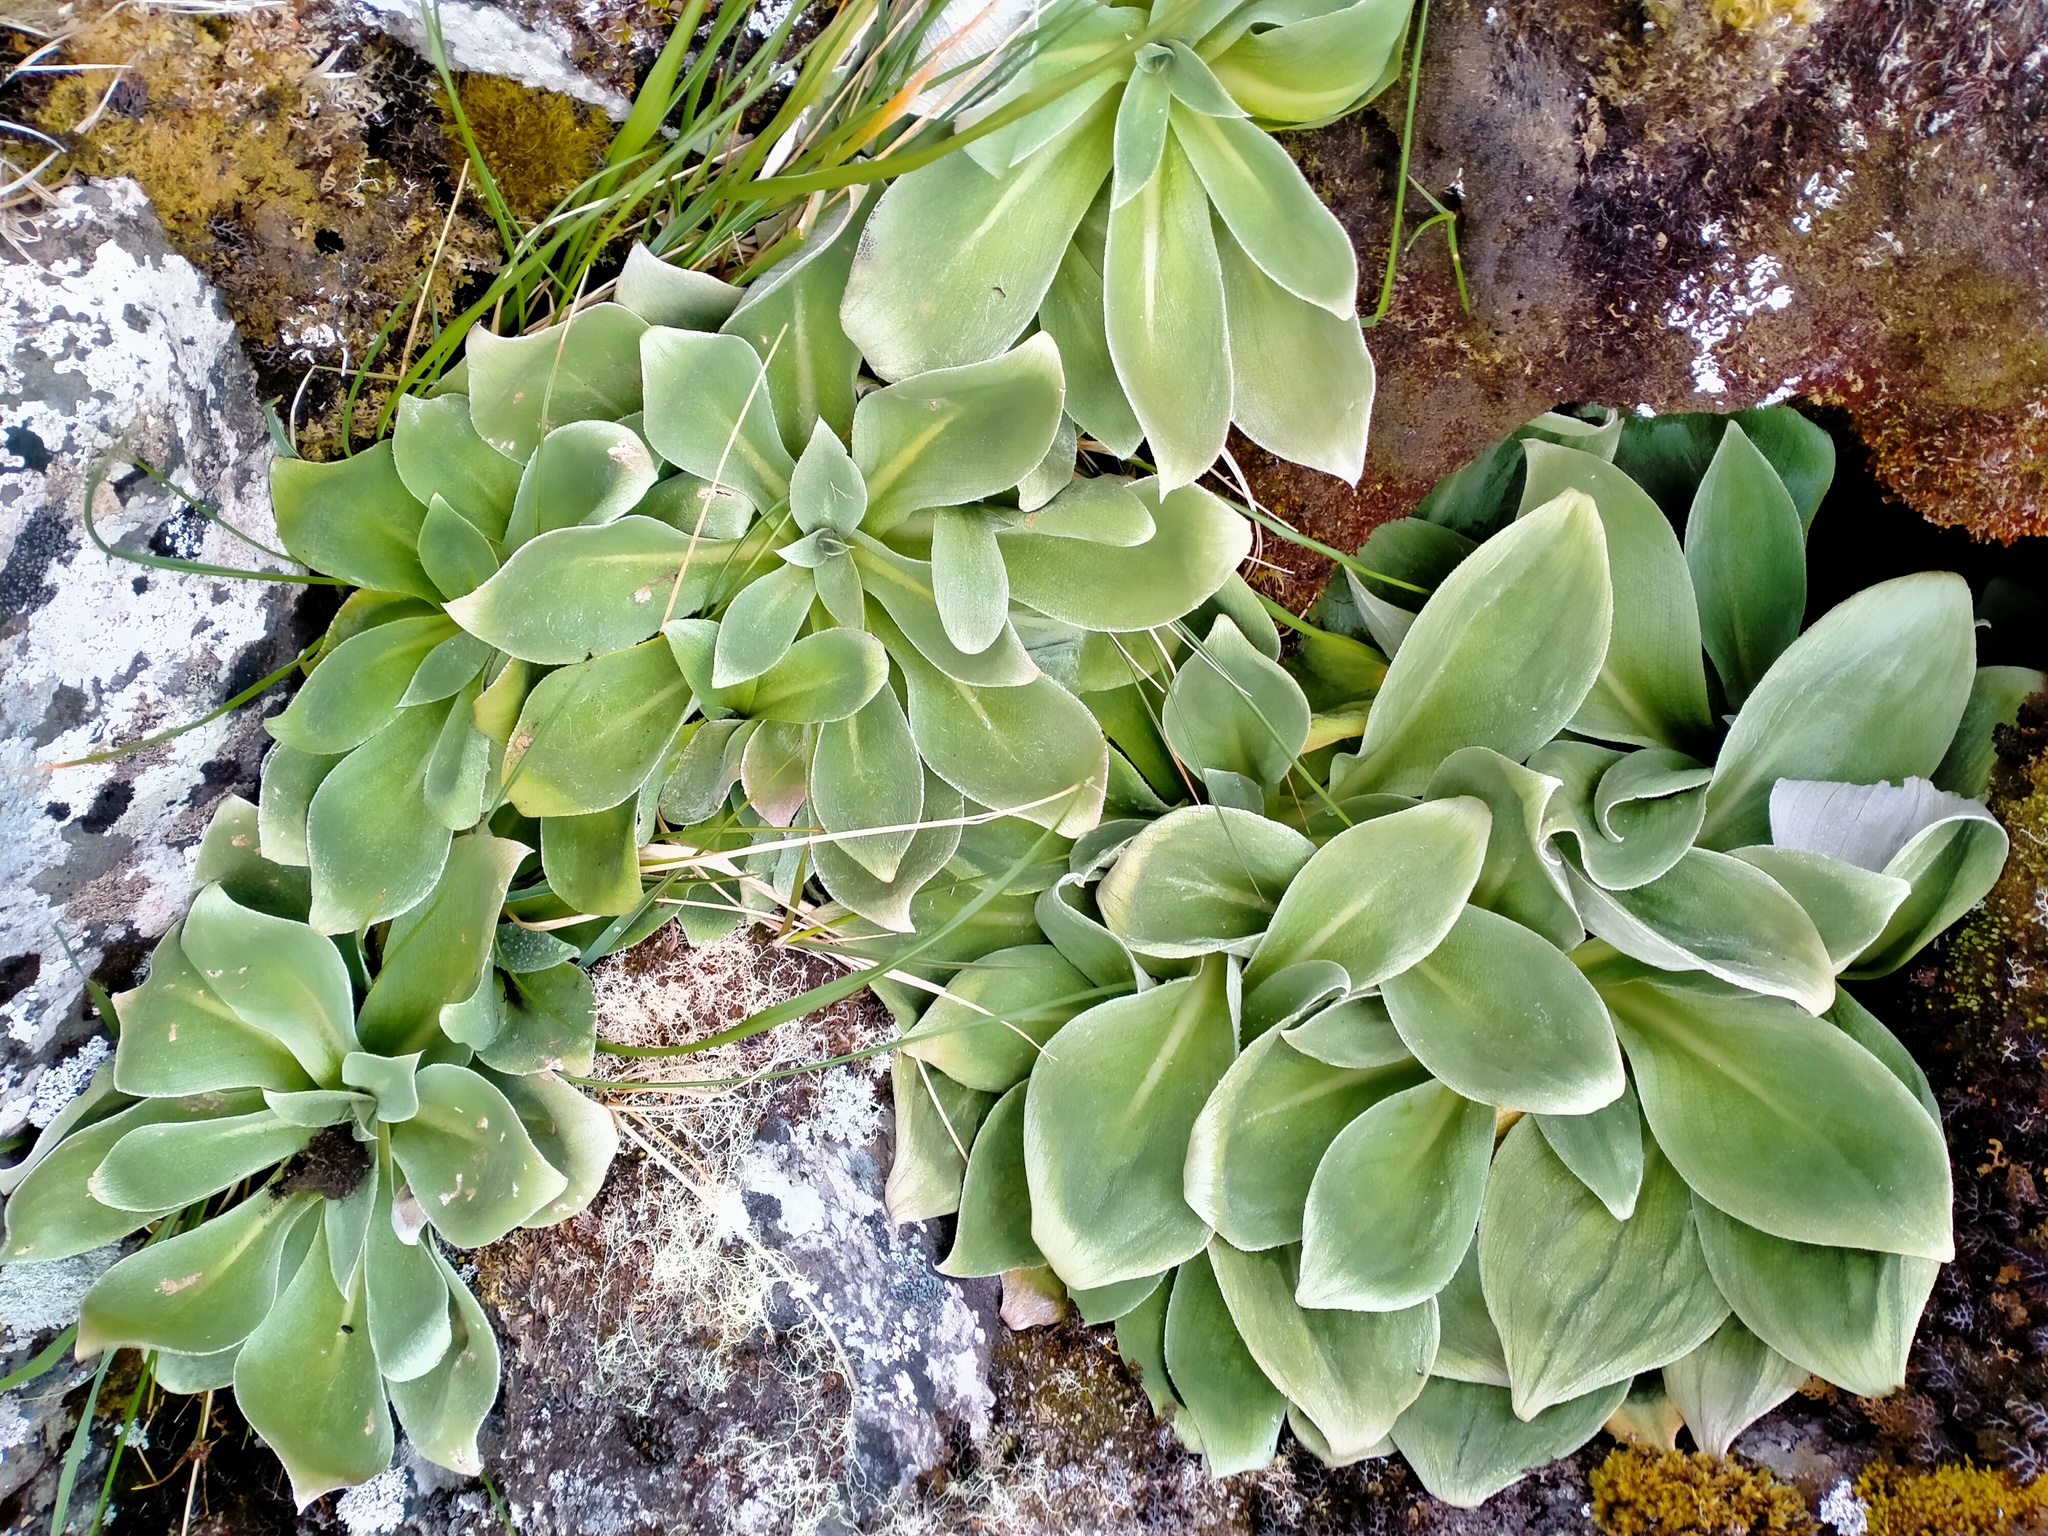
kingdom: Plantae
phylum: Tracheophyta
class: Magnoliopsida
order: Asterales
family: Asteraceae
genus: Pleurophyllum
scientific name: Pleurophyllum hookeri
